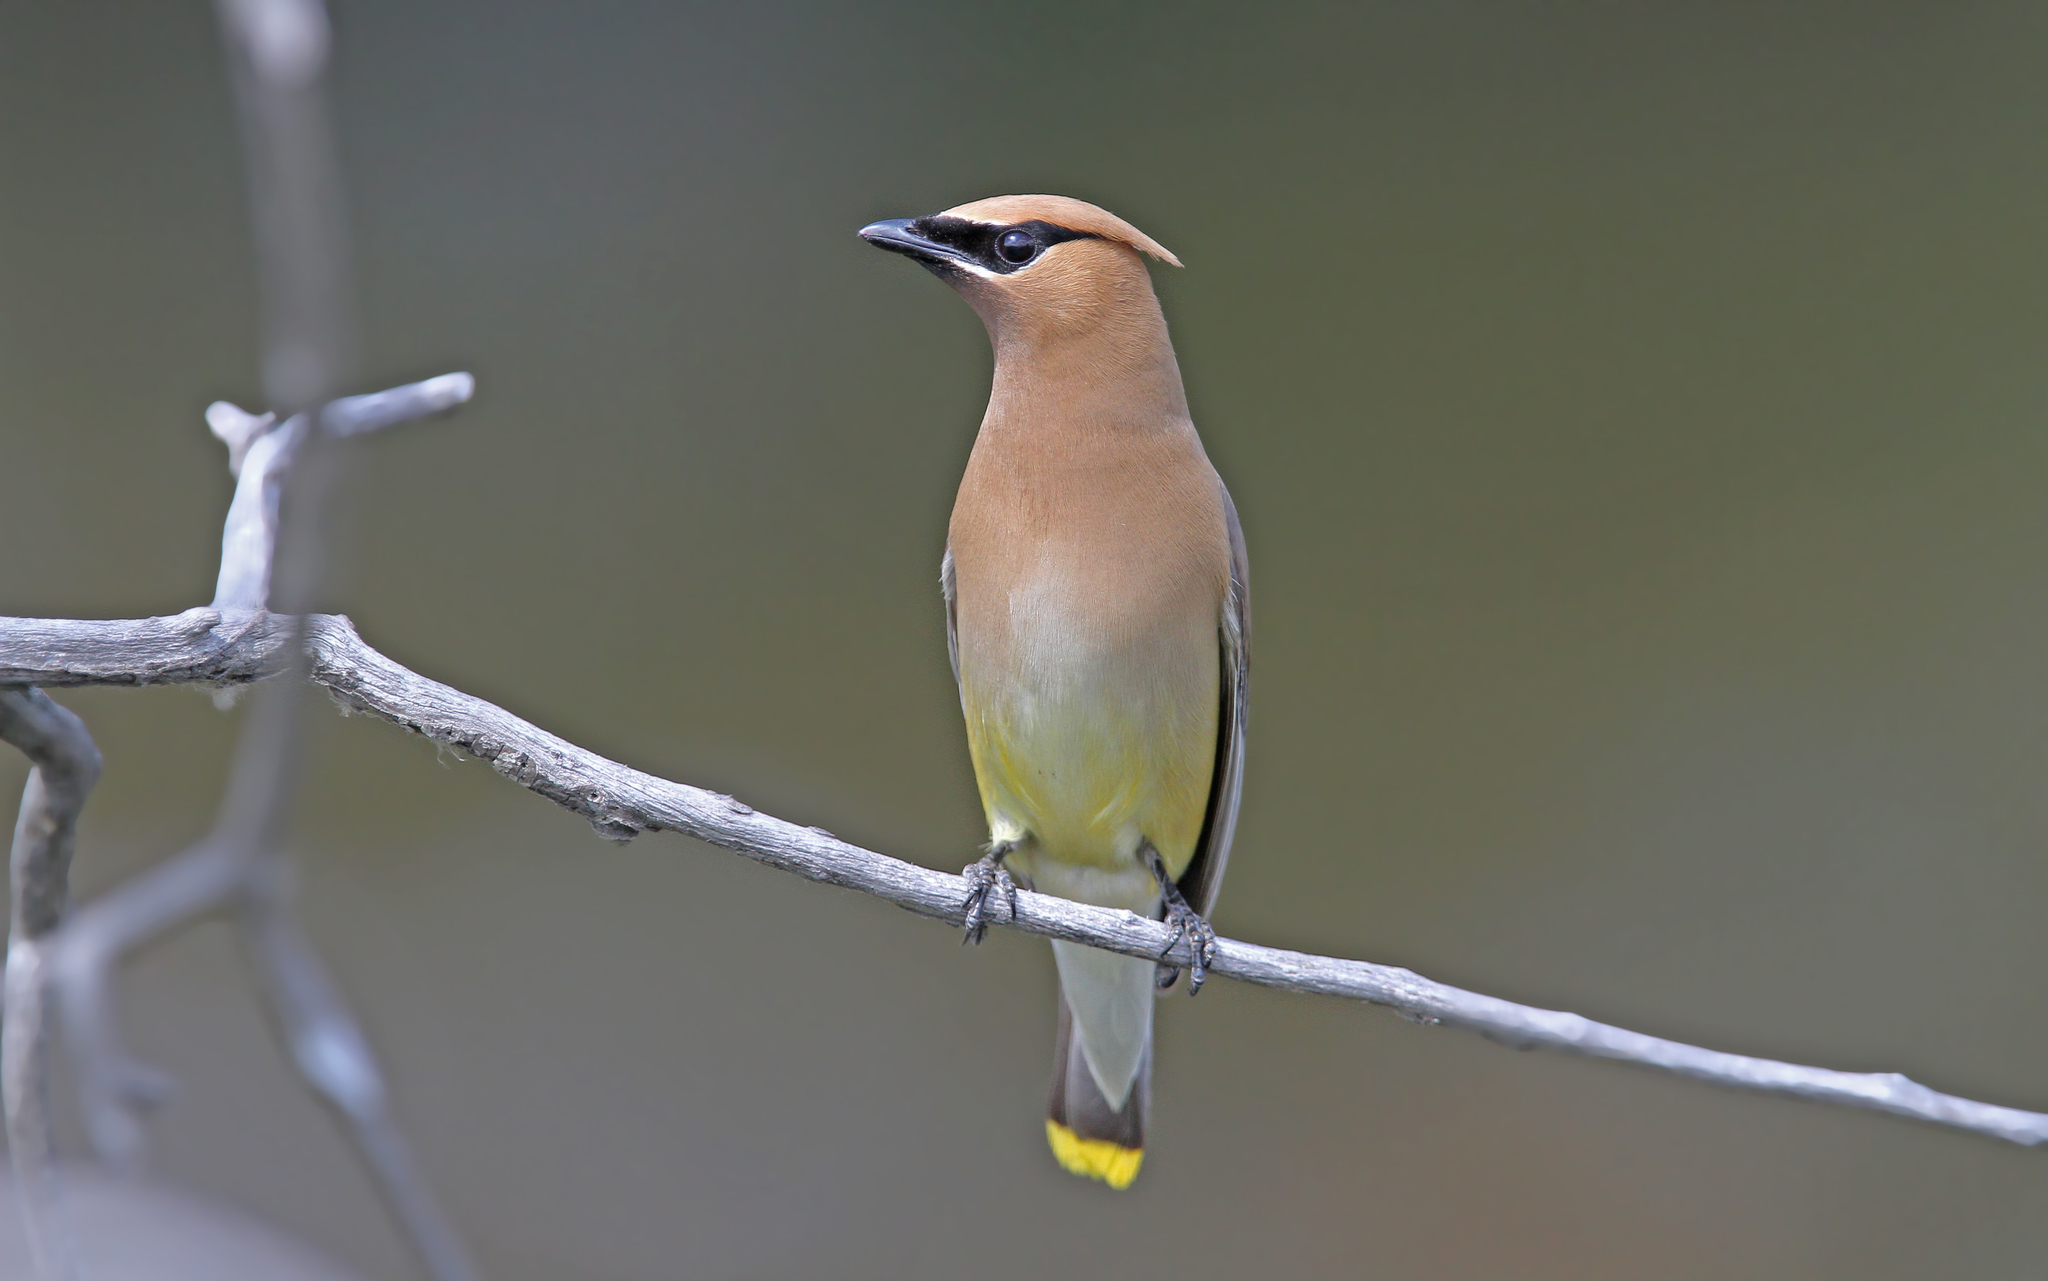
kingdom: Animalia
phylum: Chordata
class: Aves
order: Passeriformes
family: Bombycillidae
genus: Bombycilla
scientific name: Bombycilla cedrorum
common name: Cedar waxwing
